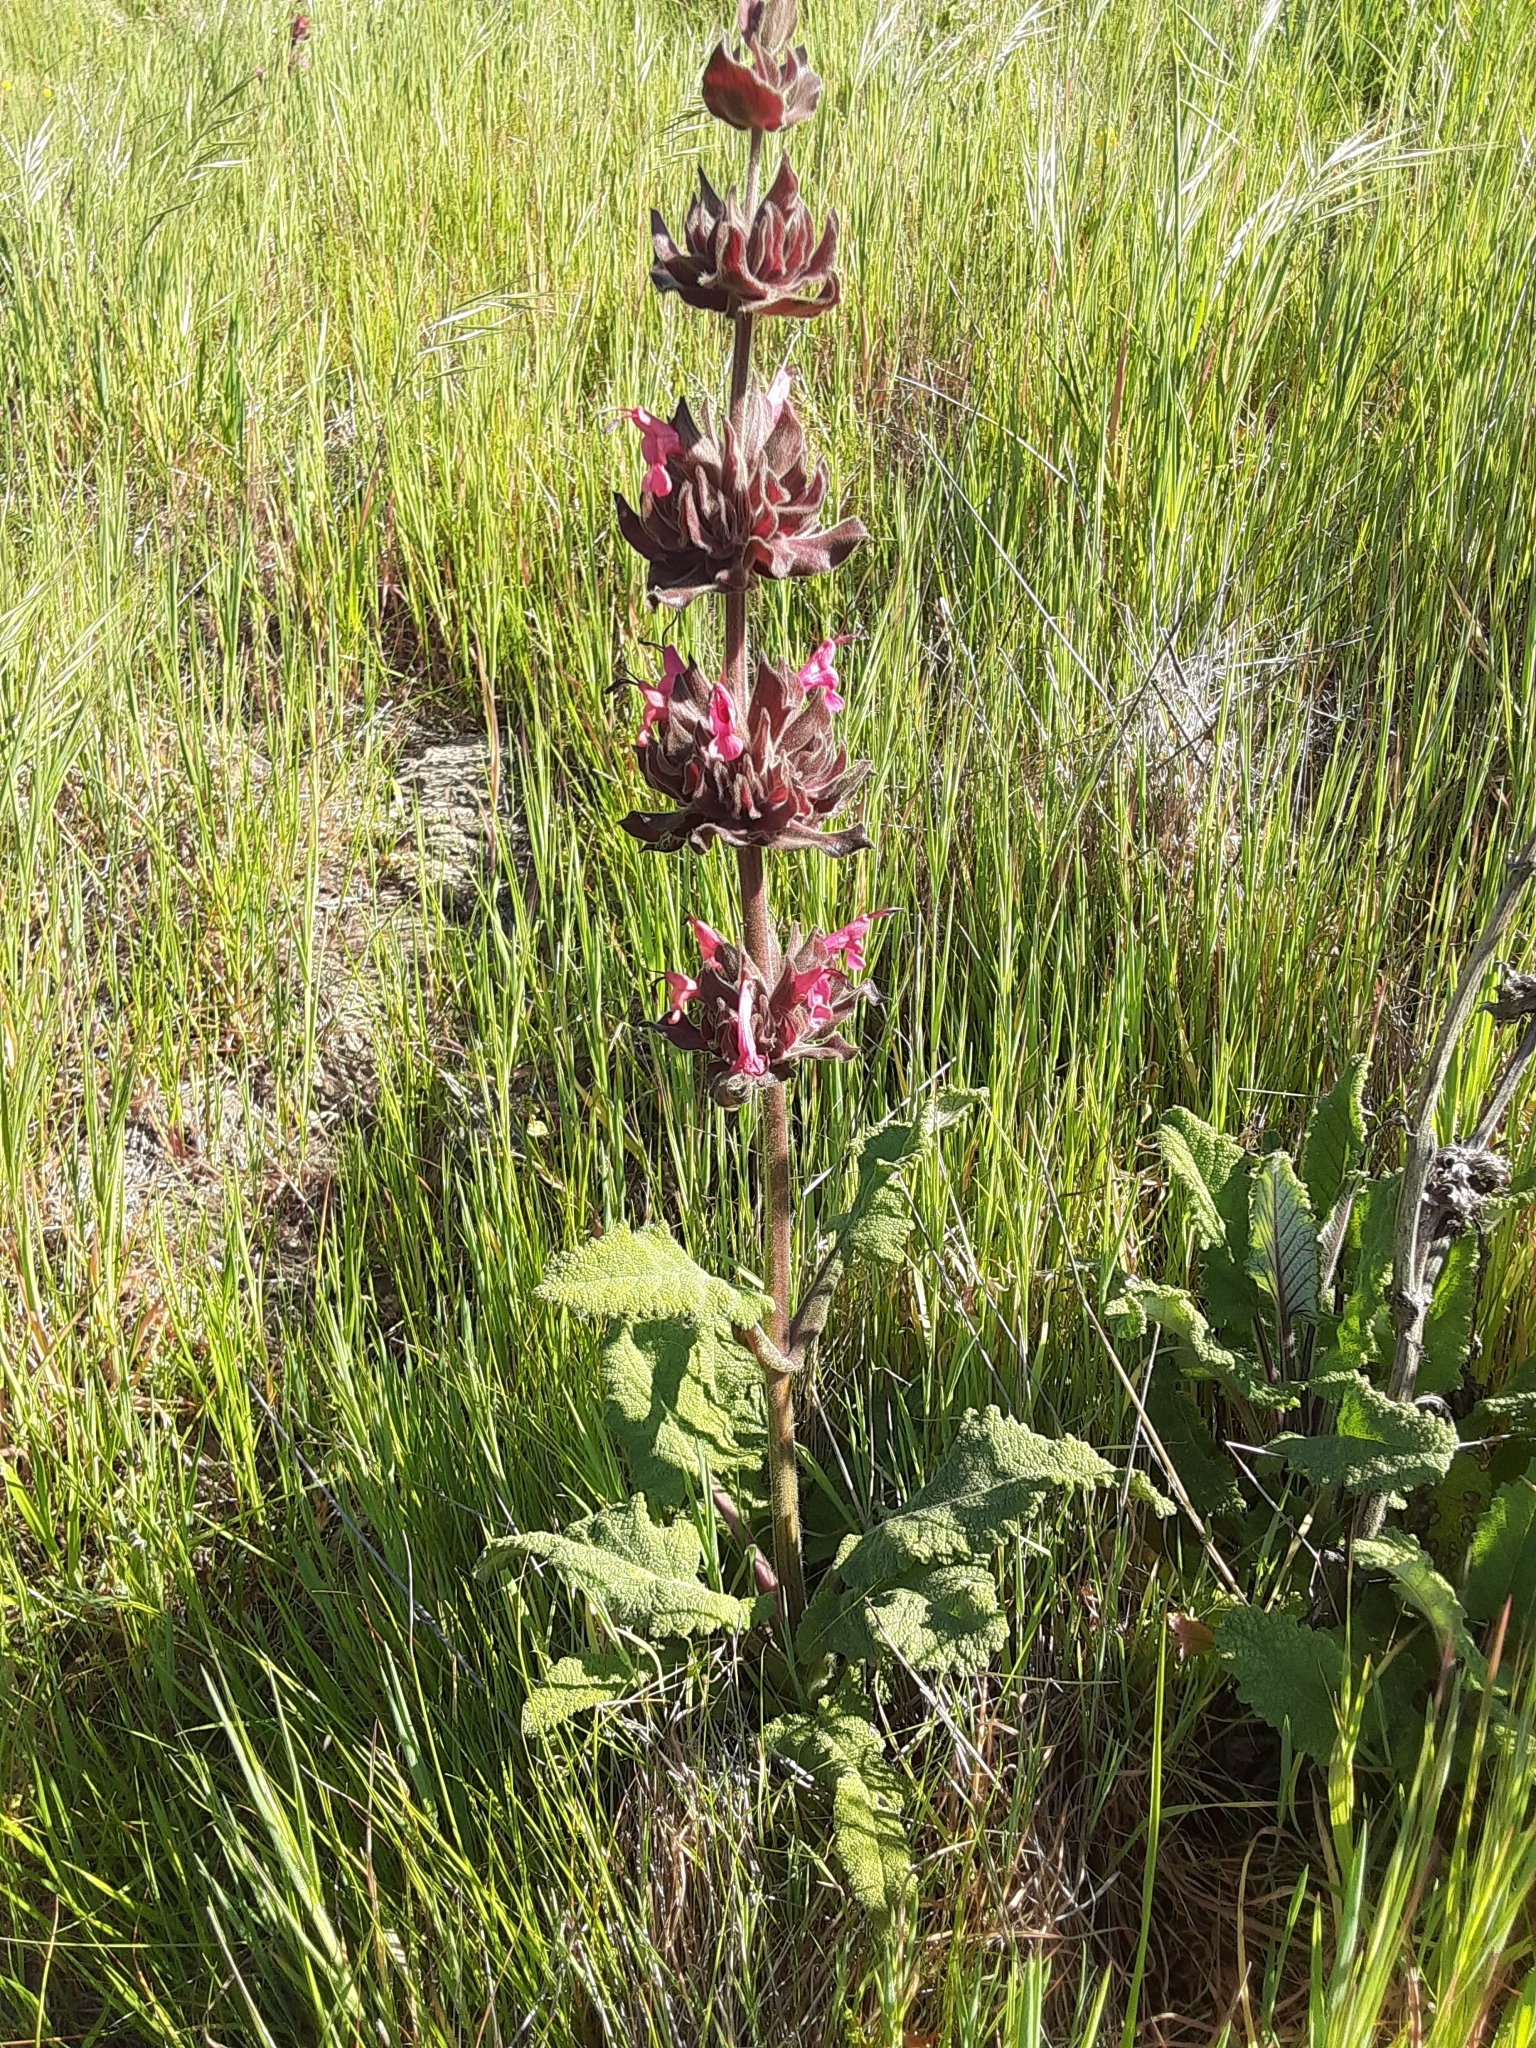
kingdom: Plantae
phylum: Tracheophyta
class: Magnoliopsida
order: Lamiales
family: Lamiaceae
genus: Salvia
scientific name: Salvia spathacea
